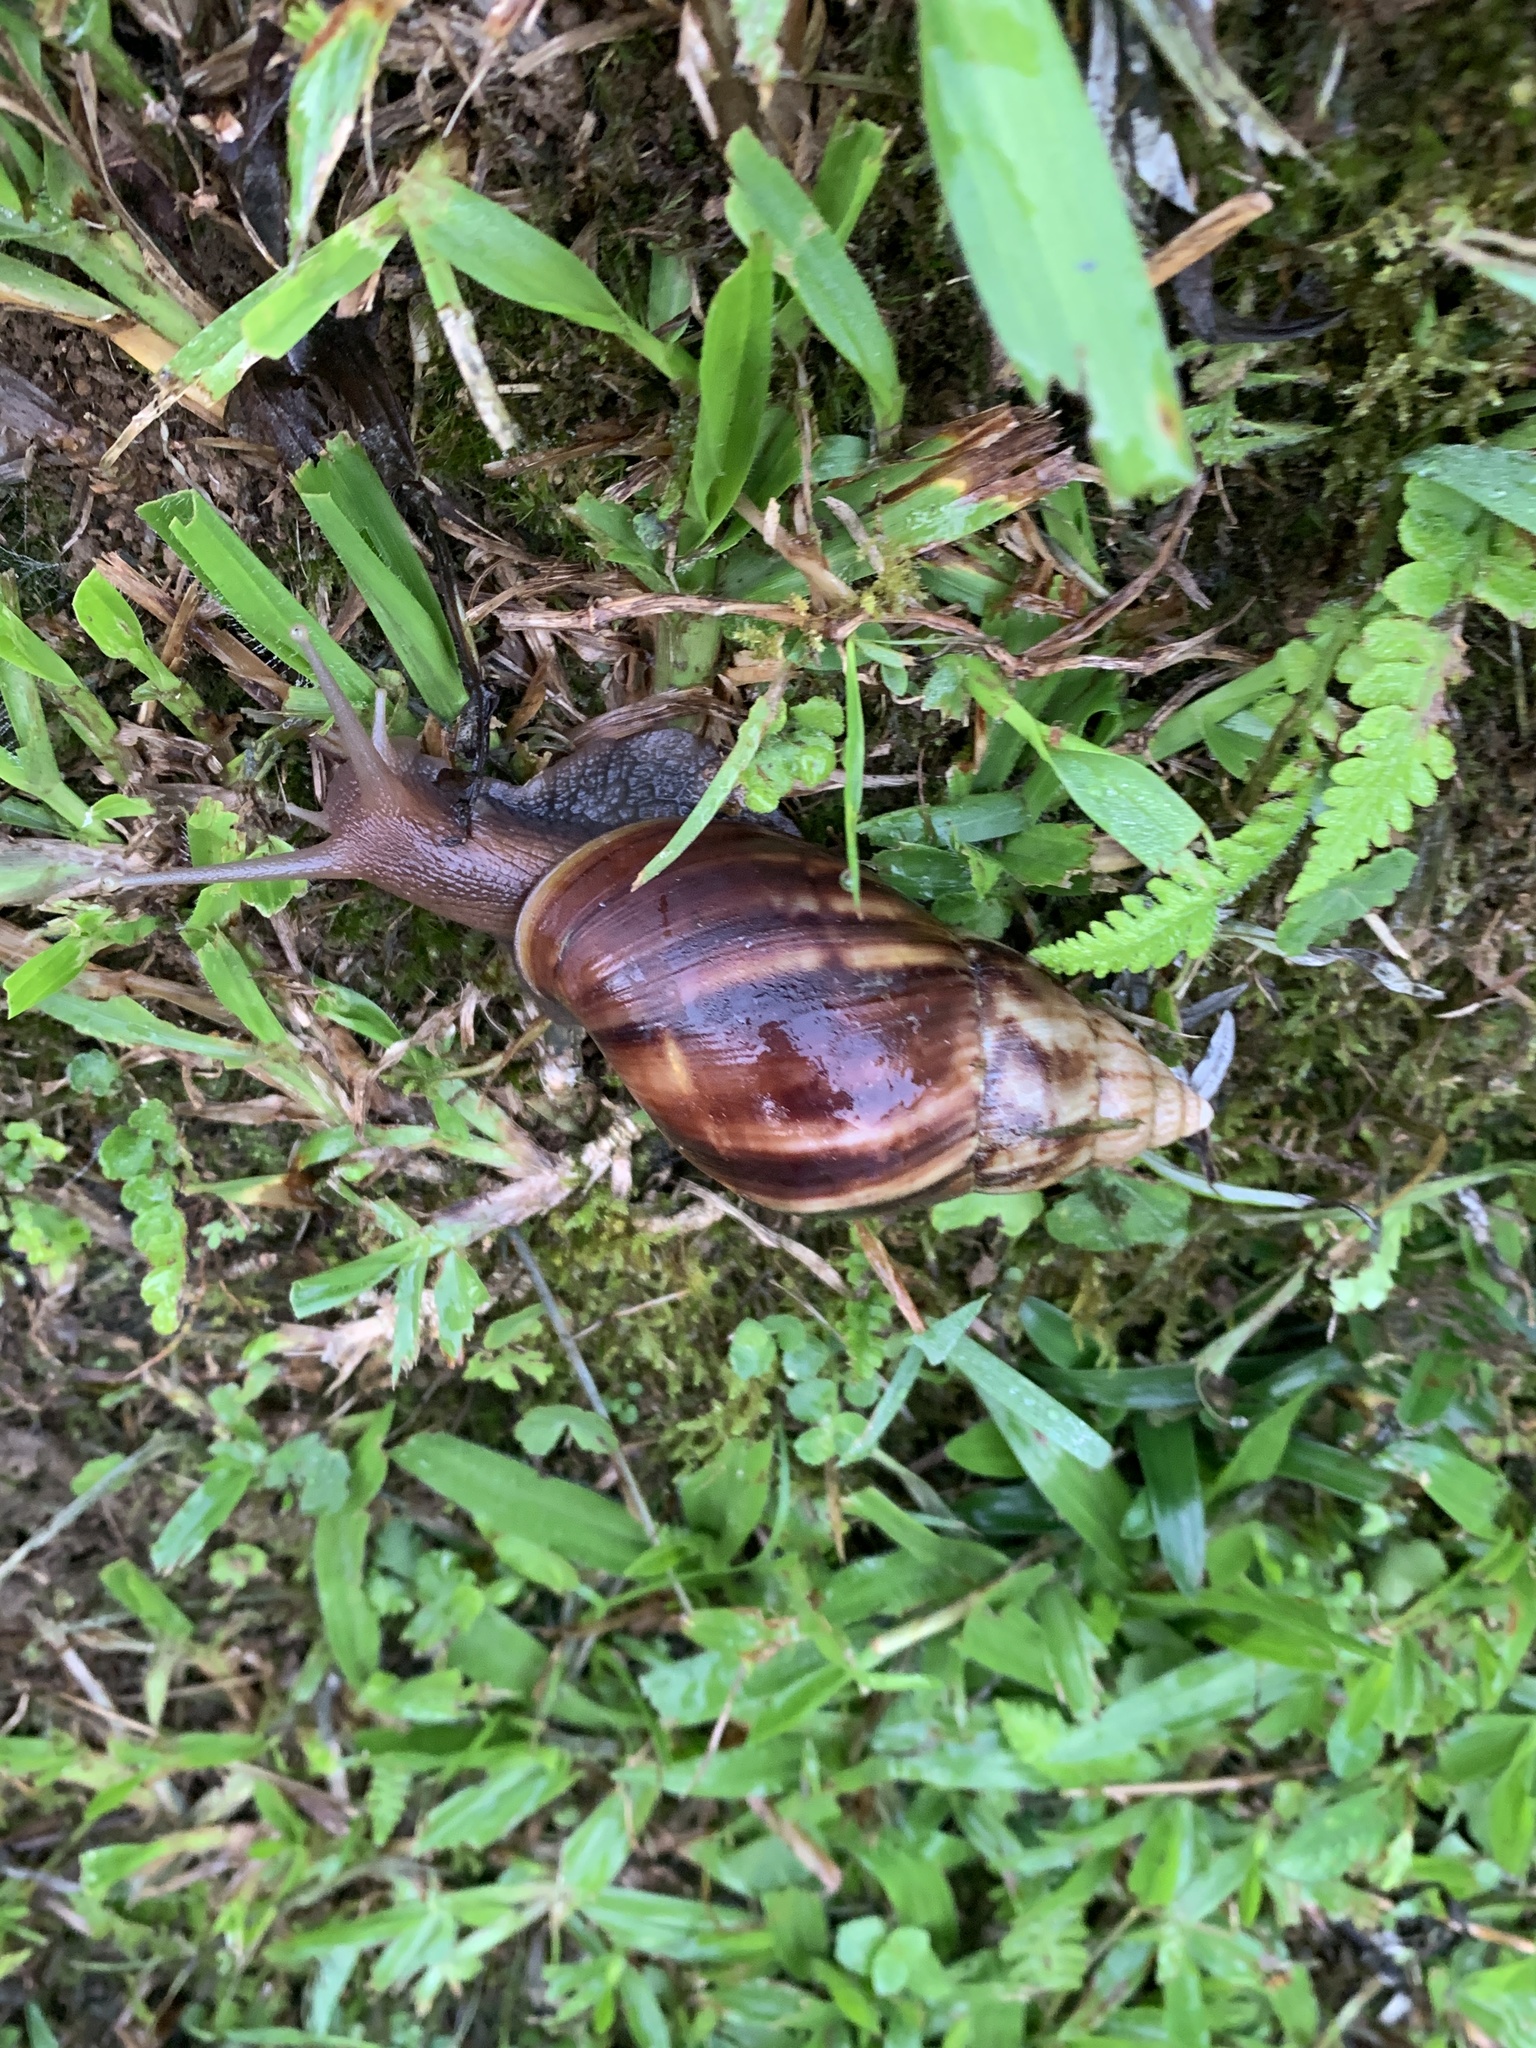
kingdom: Animalia
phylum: Mollusca
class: Gastropoda
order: Stylommatophora
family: Achatinidae
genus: Lissachatina
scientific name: Lissachatina fulica
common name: Giant african snail
